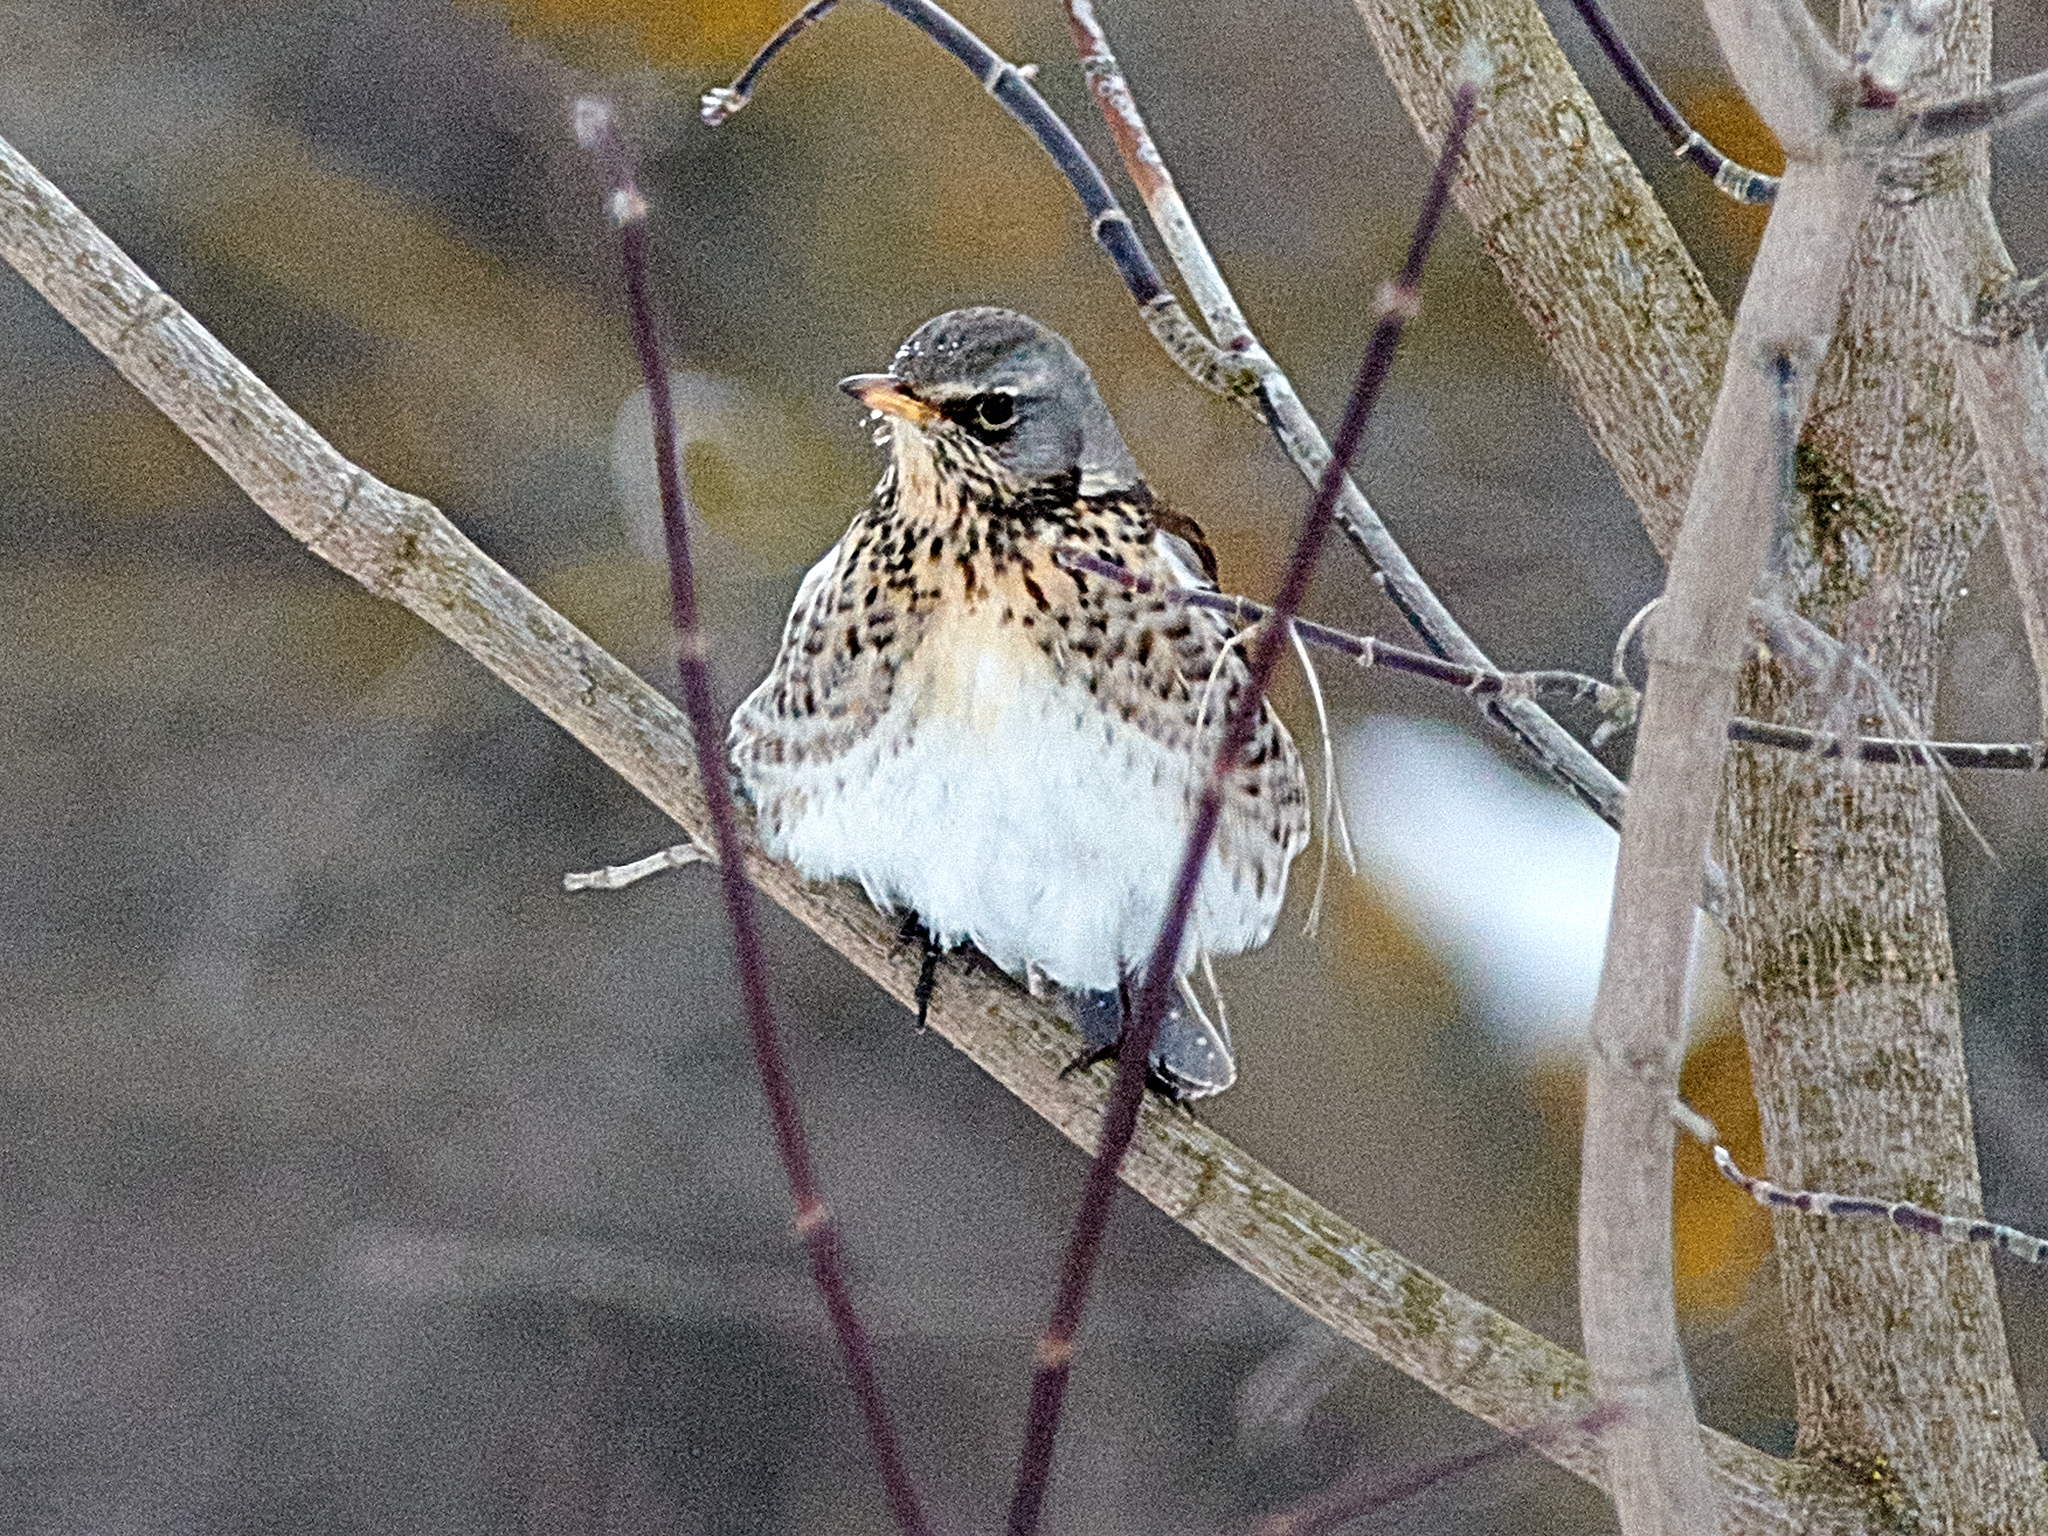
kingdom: Animalia
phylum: Chordata
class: Aves
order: Passeriformes
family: Turdidae
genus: Turdus
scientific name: Turdus pilaris
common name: Fieldfare
